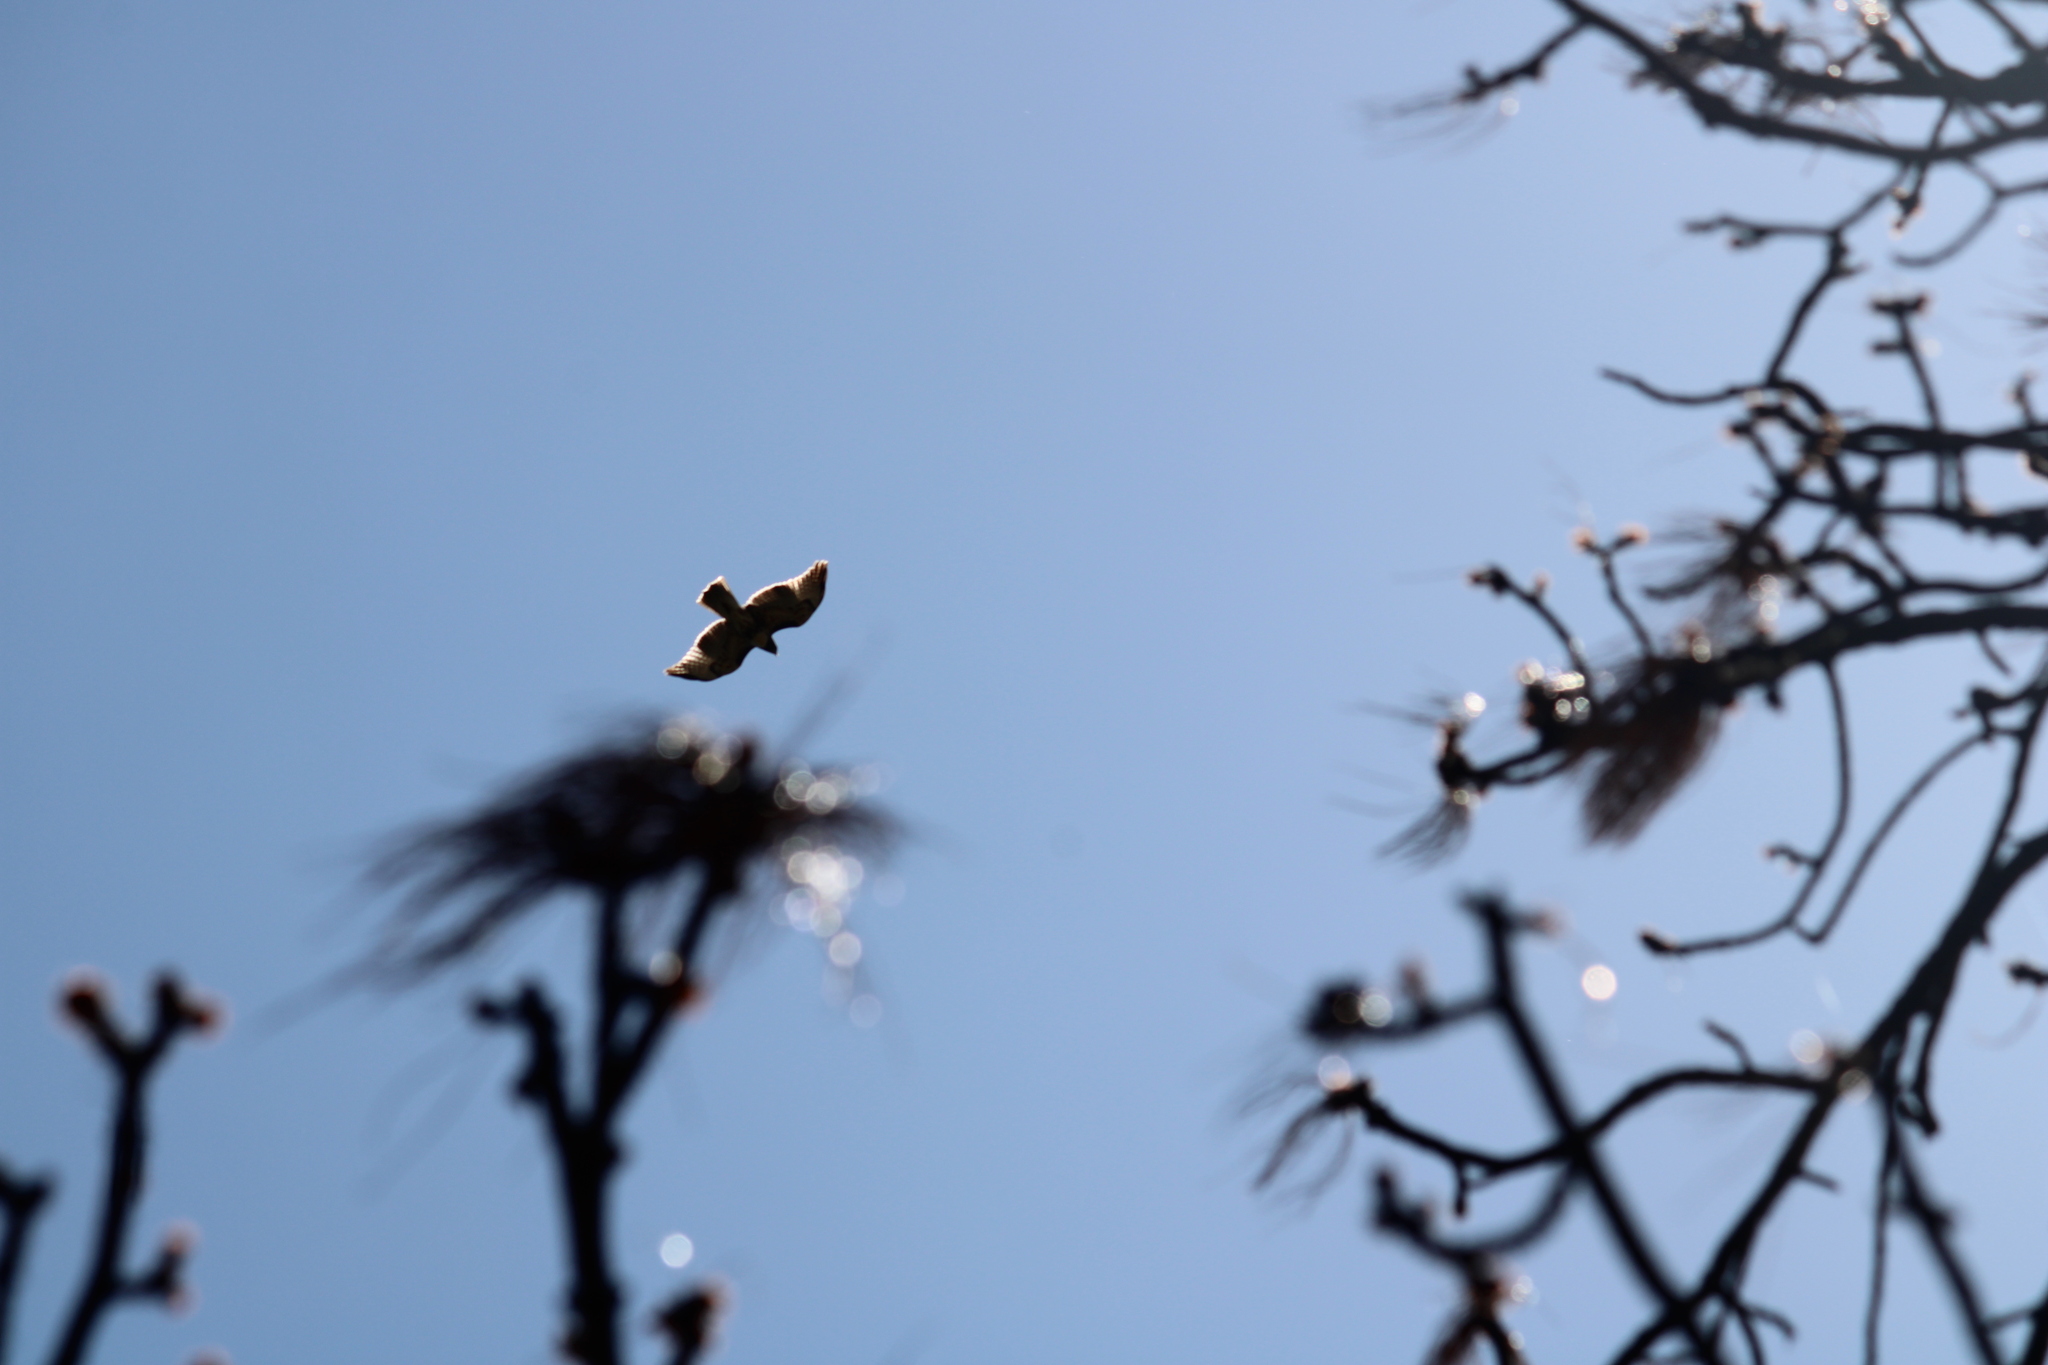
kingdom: Animalia
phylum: Chordata
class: Aves
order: Accipitriformes
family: Accipitridae
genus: Buteo
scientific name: Buteo jamaicensis
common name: Red-tailed hawk
